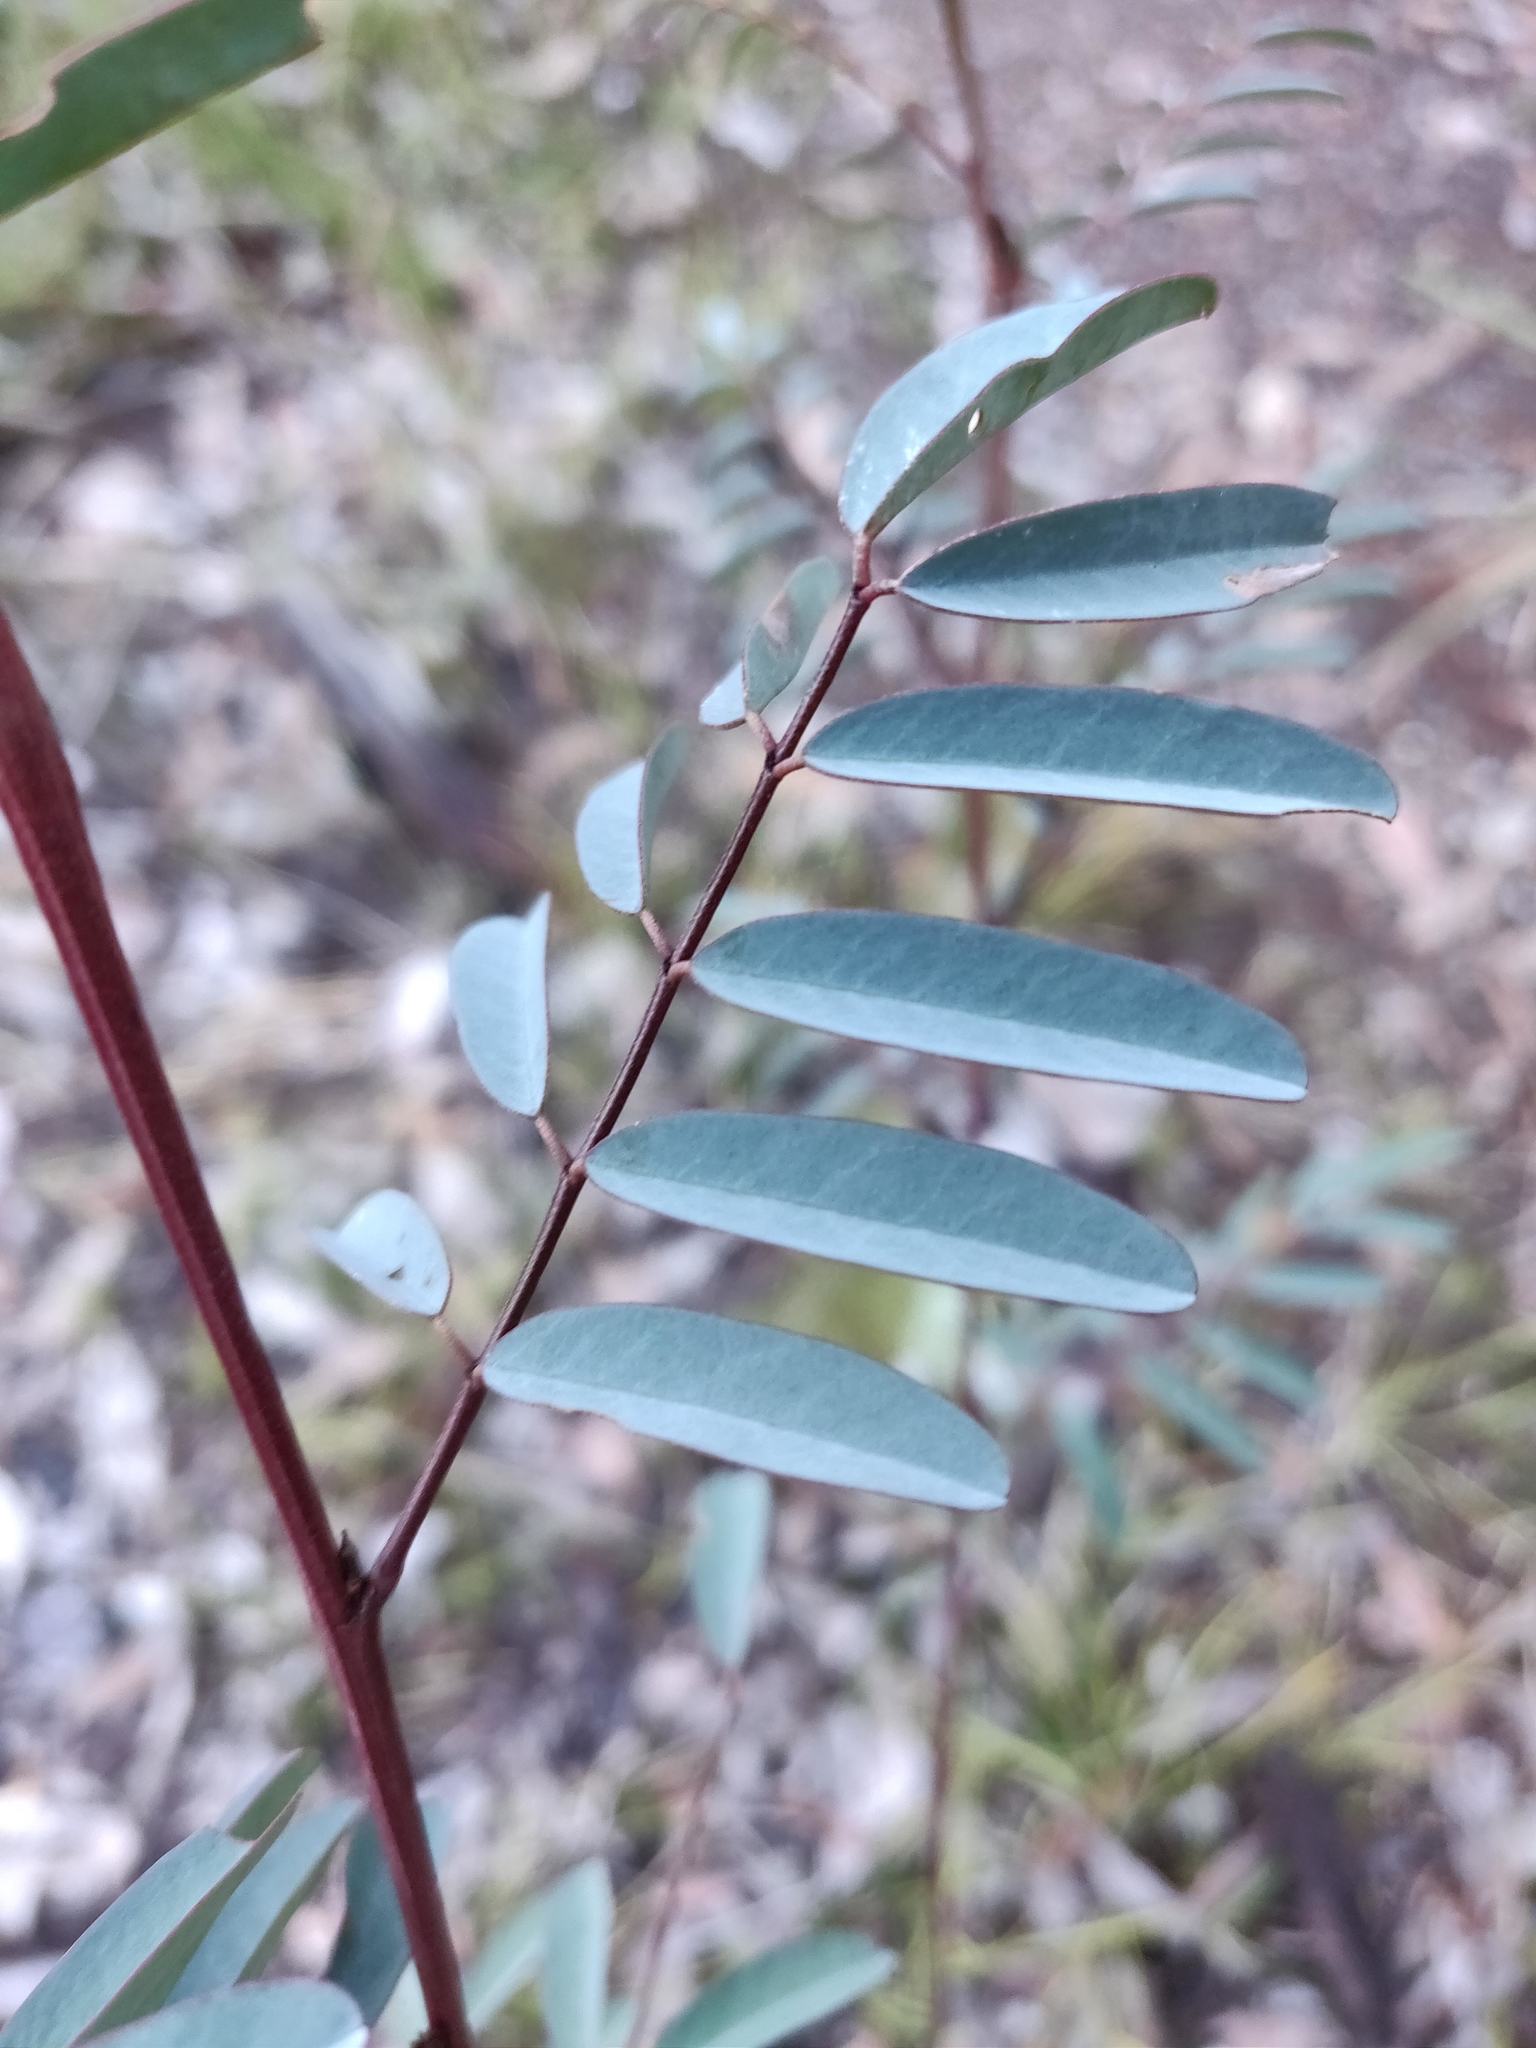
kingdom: Plantae
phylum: Tracheophyta
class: Magnoliopsida
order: Fabales
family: Fabaceae
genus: Indigofera
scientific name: Indigofera australis
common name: Australian indigo
